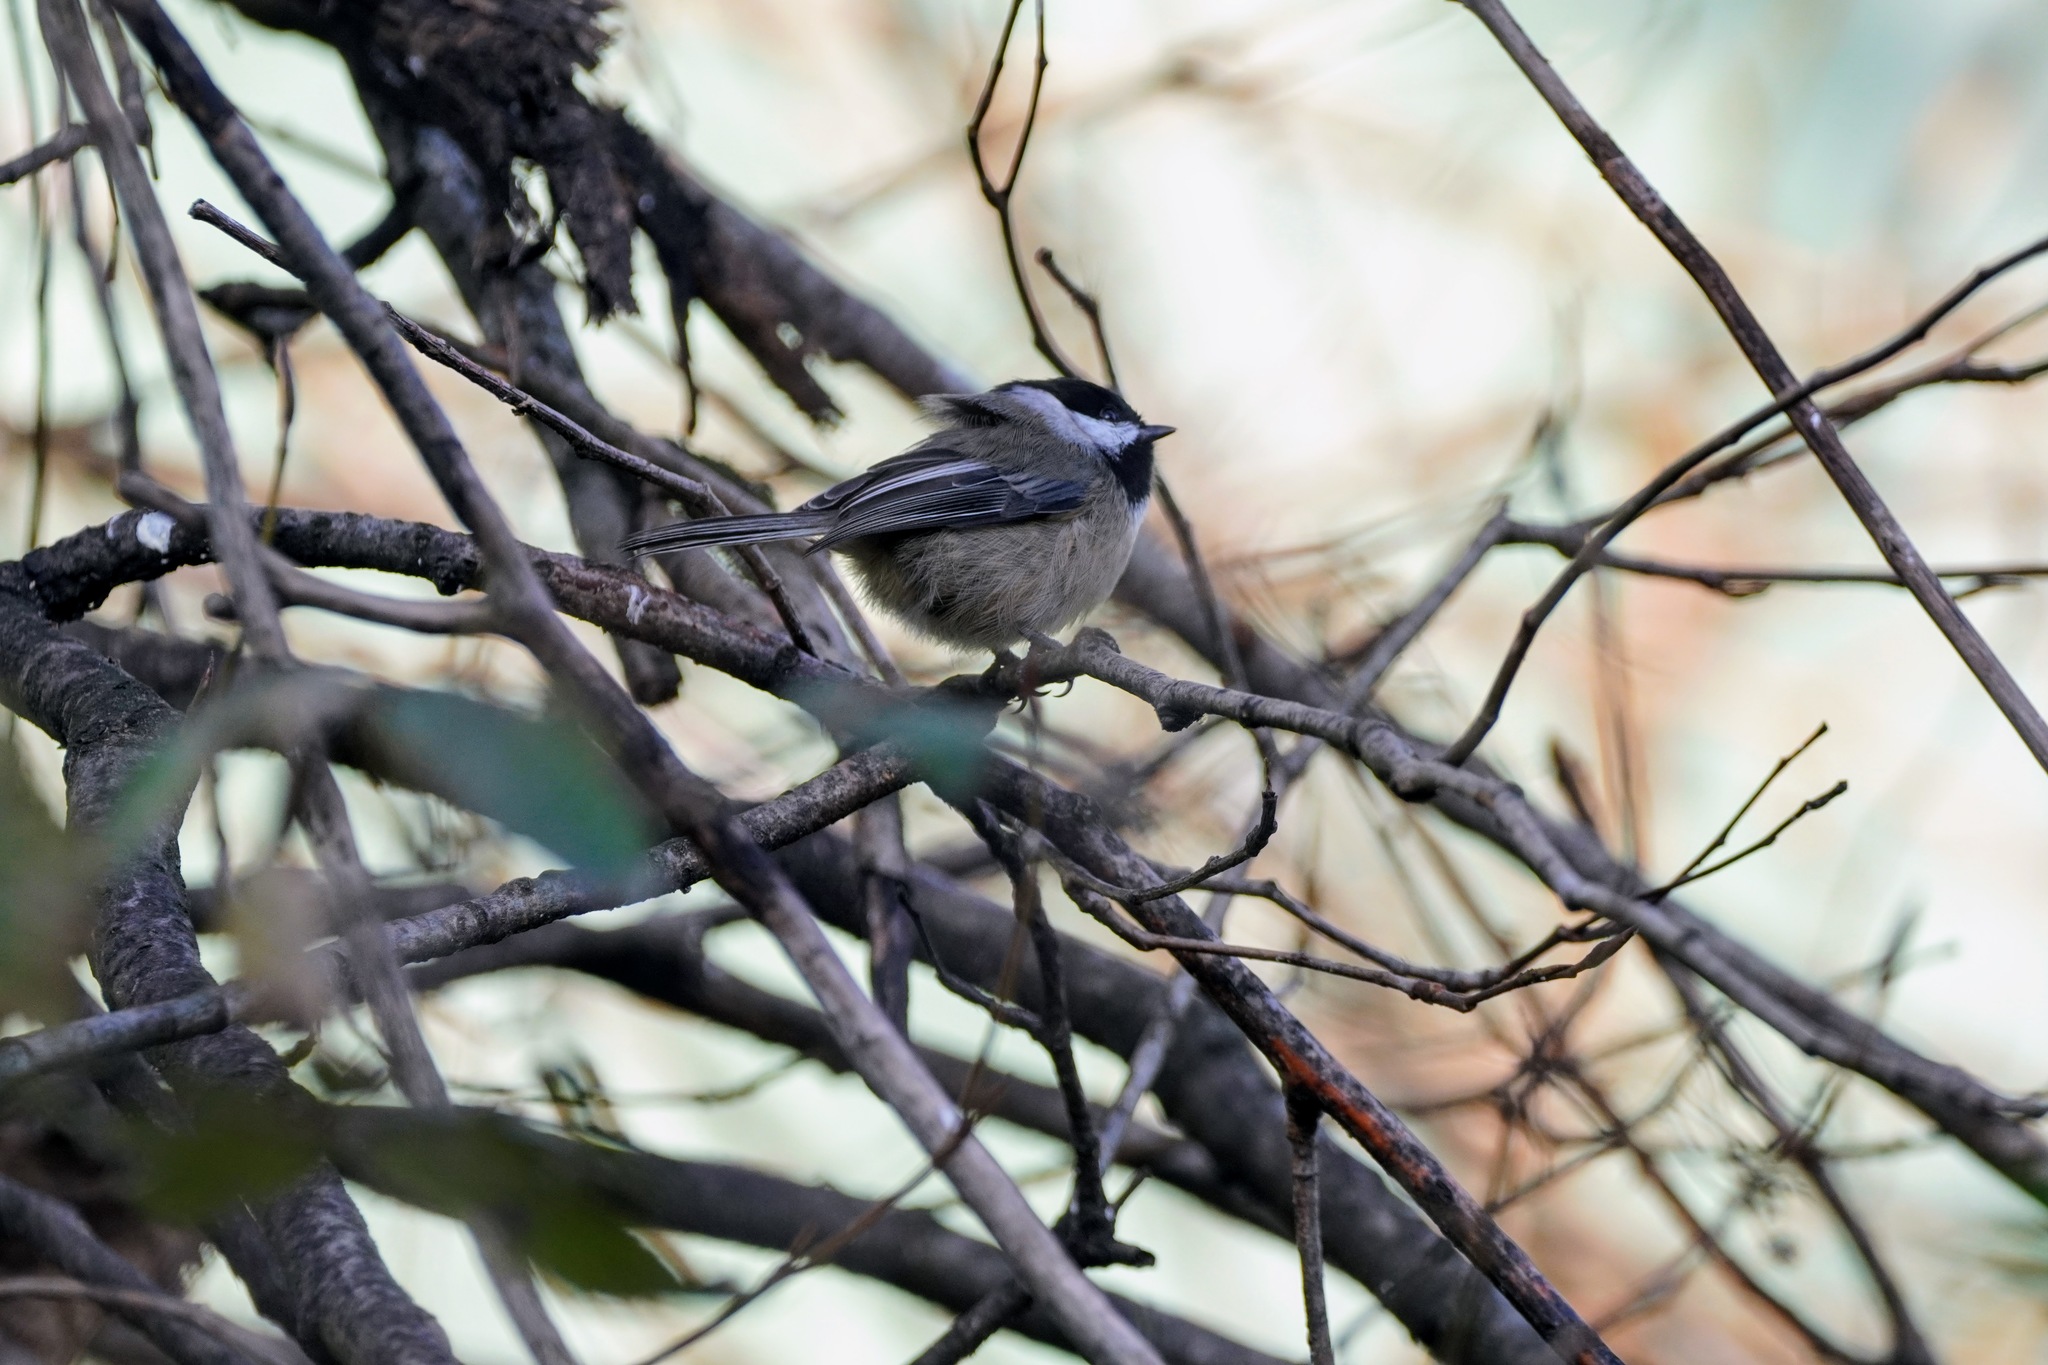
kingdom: Animalia
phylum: Chordata
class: Aves
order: Passeriformes
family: Paridae
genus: Poecile
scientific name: Poecile atricapillus
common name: Black-capped chickadee
